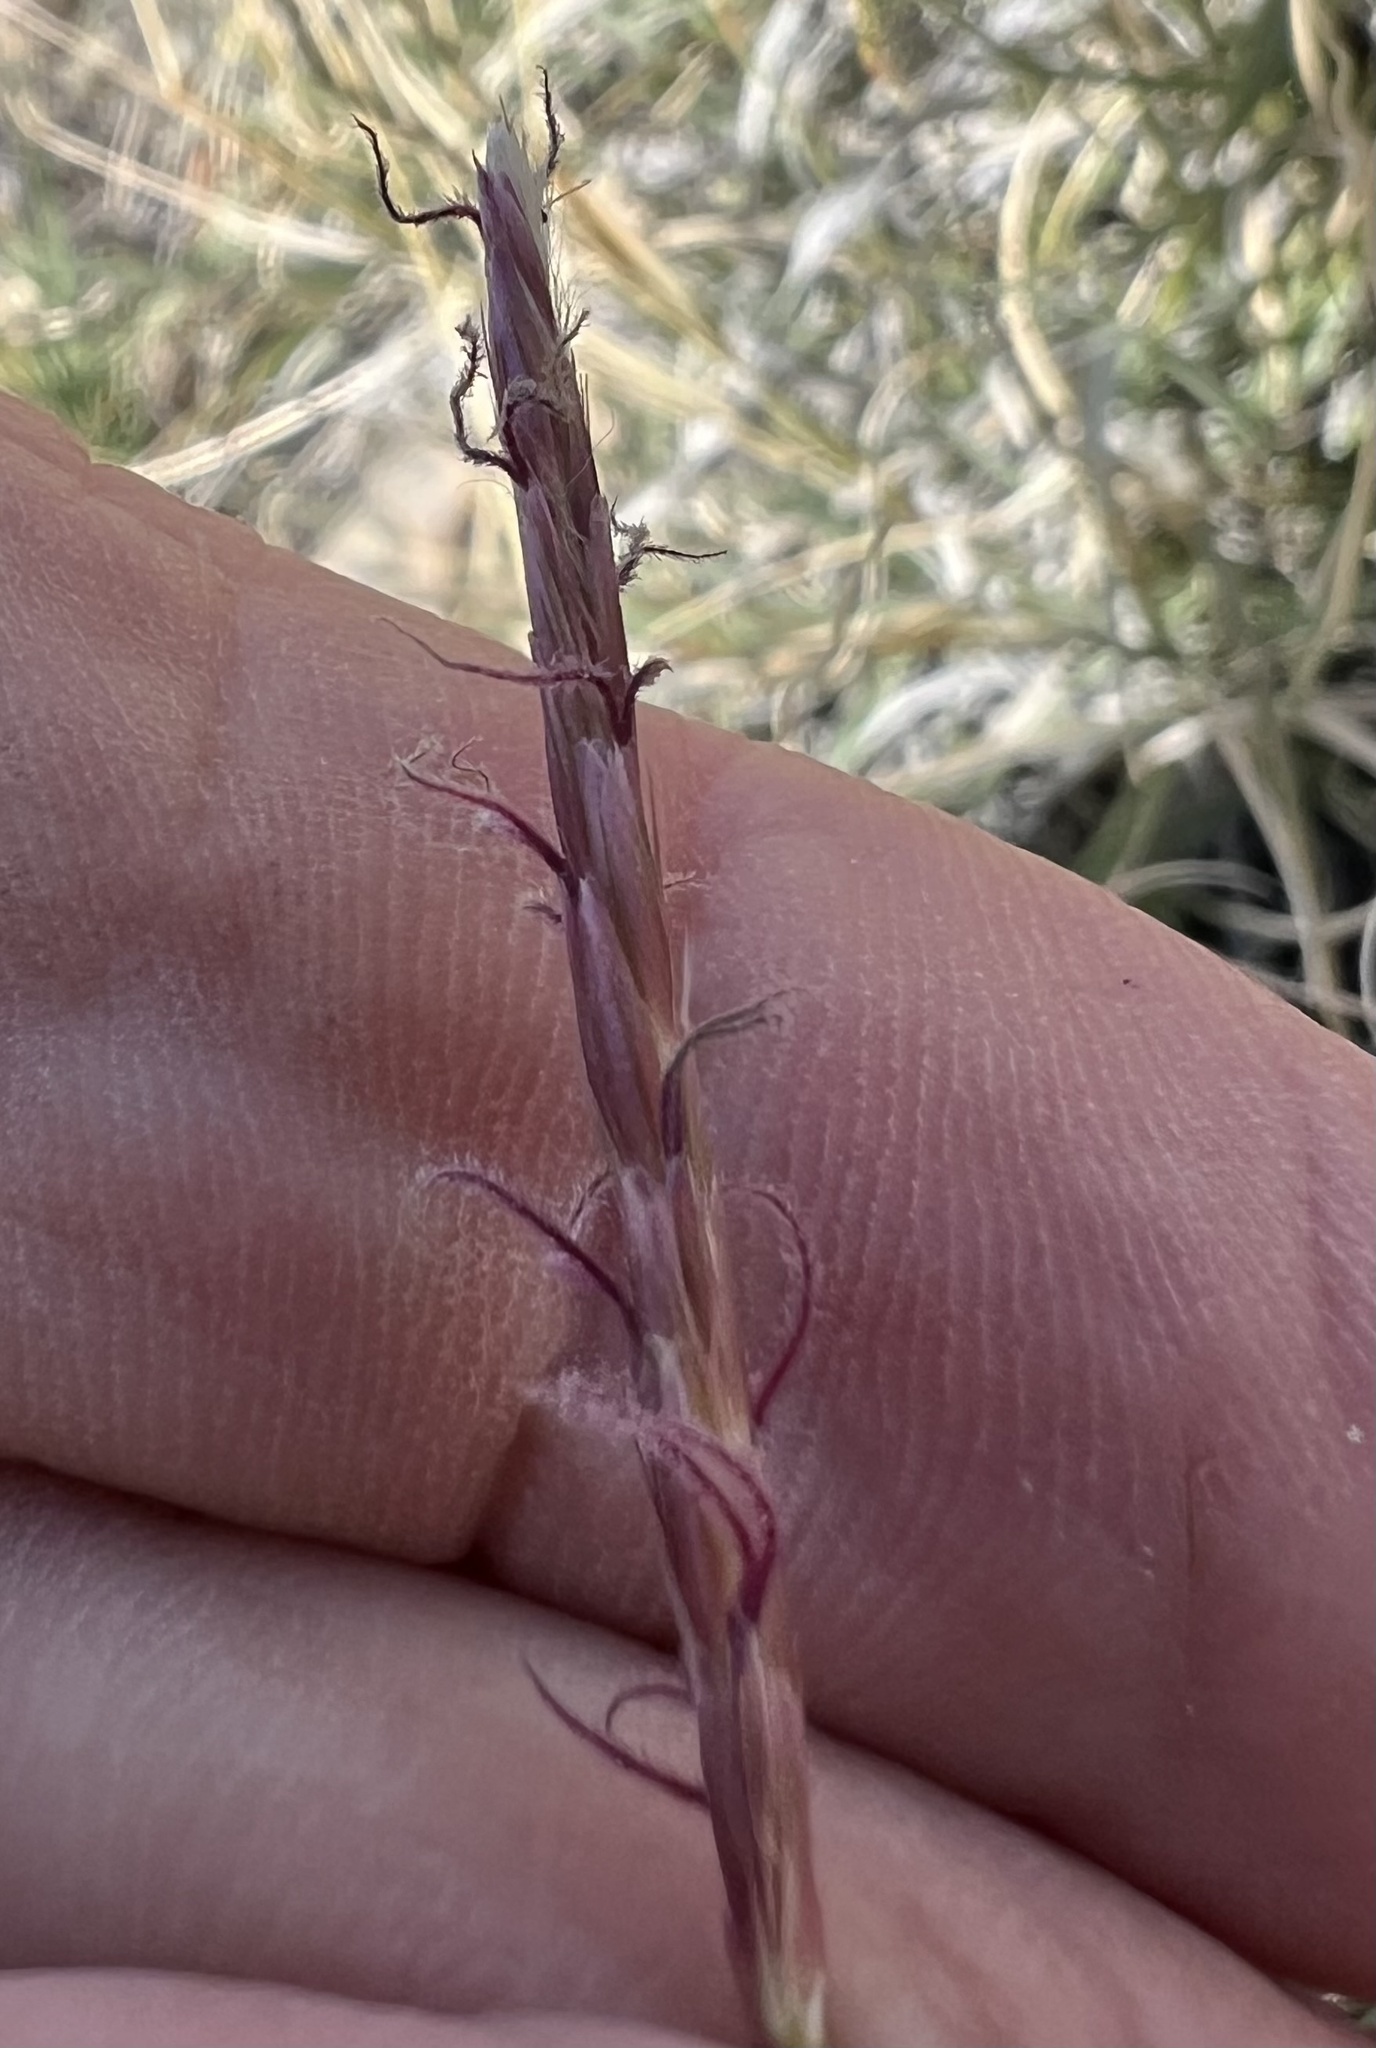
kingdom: Plantae
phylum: Tracheophyta
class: Liliopsida
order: Poales
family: Poaceae
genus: Hilaria
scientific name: Hilaria jamesii
